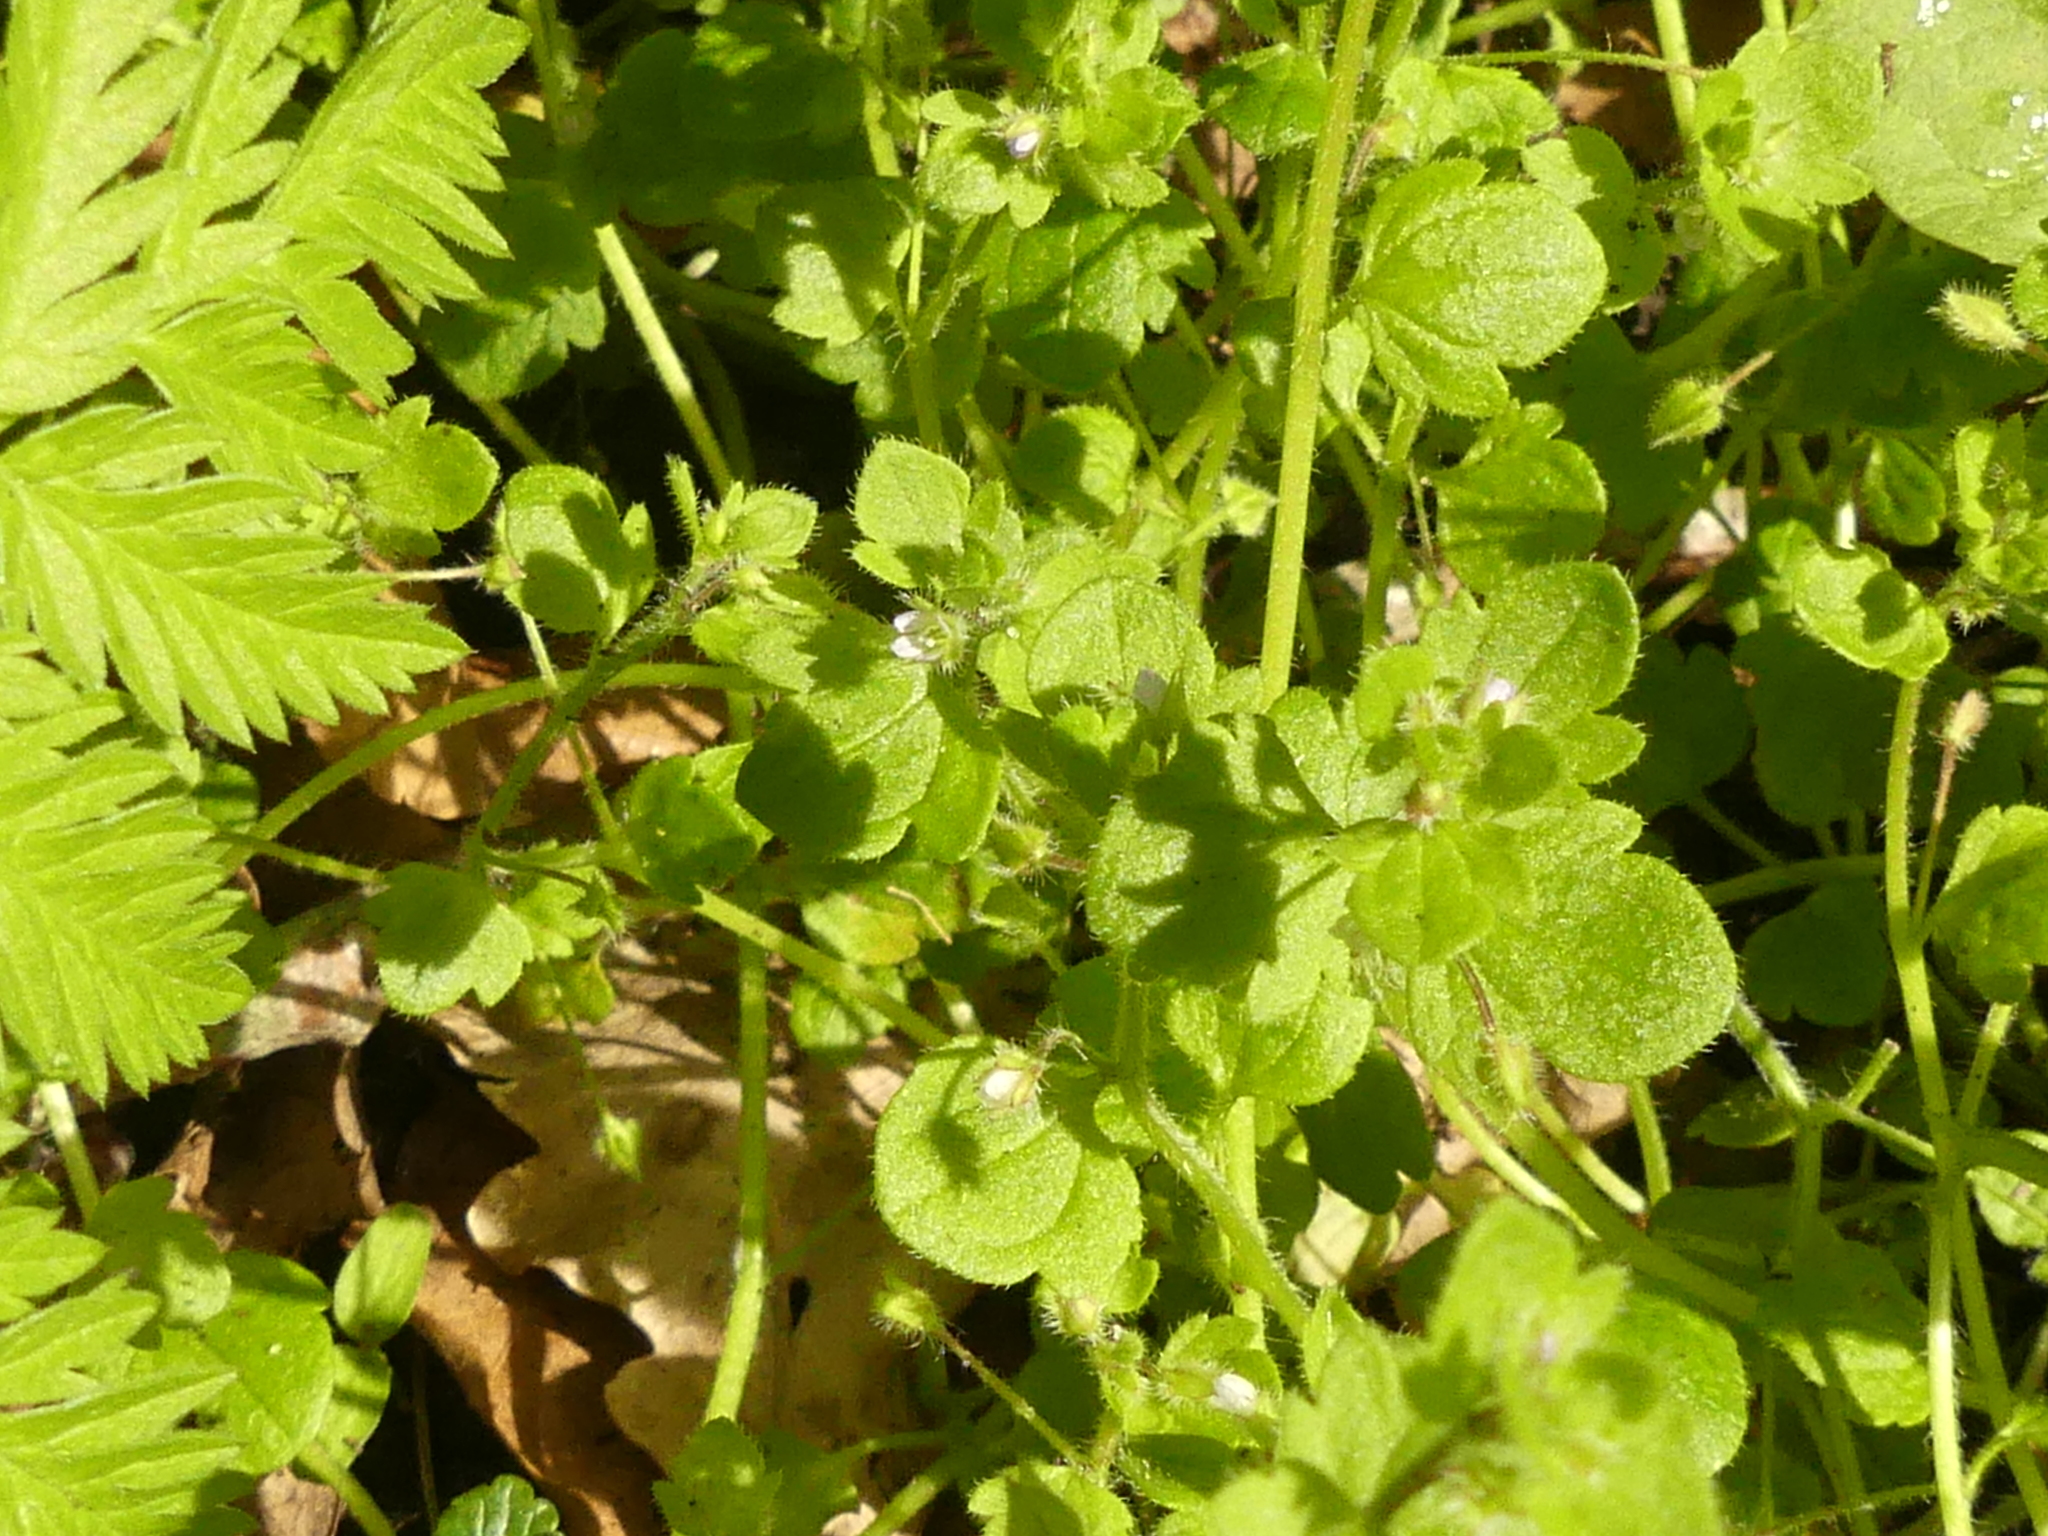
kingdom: Plantae
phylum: Tracheophyta
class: Magnoliopsida
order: Lamiales
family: Plantaginaceae
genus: Veronica
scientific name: Veronica sublobata
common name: False ivy-leaved speedwell
